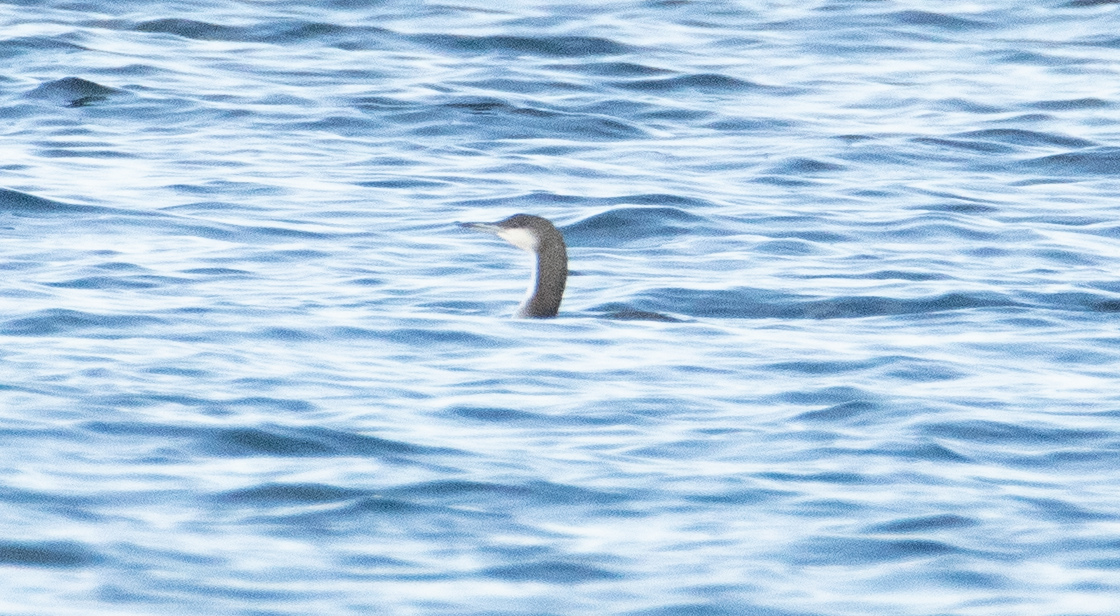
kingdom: Animalia
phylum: Chordata
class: Aves
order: Gaviiformes
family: Gaviidae
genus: Gavia
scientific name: Gavia arctica
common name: Black-throated loon
